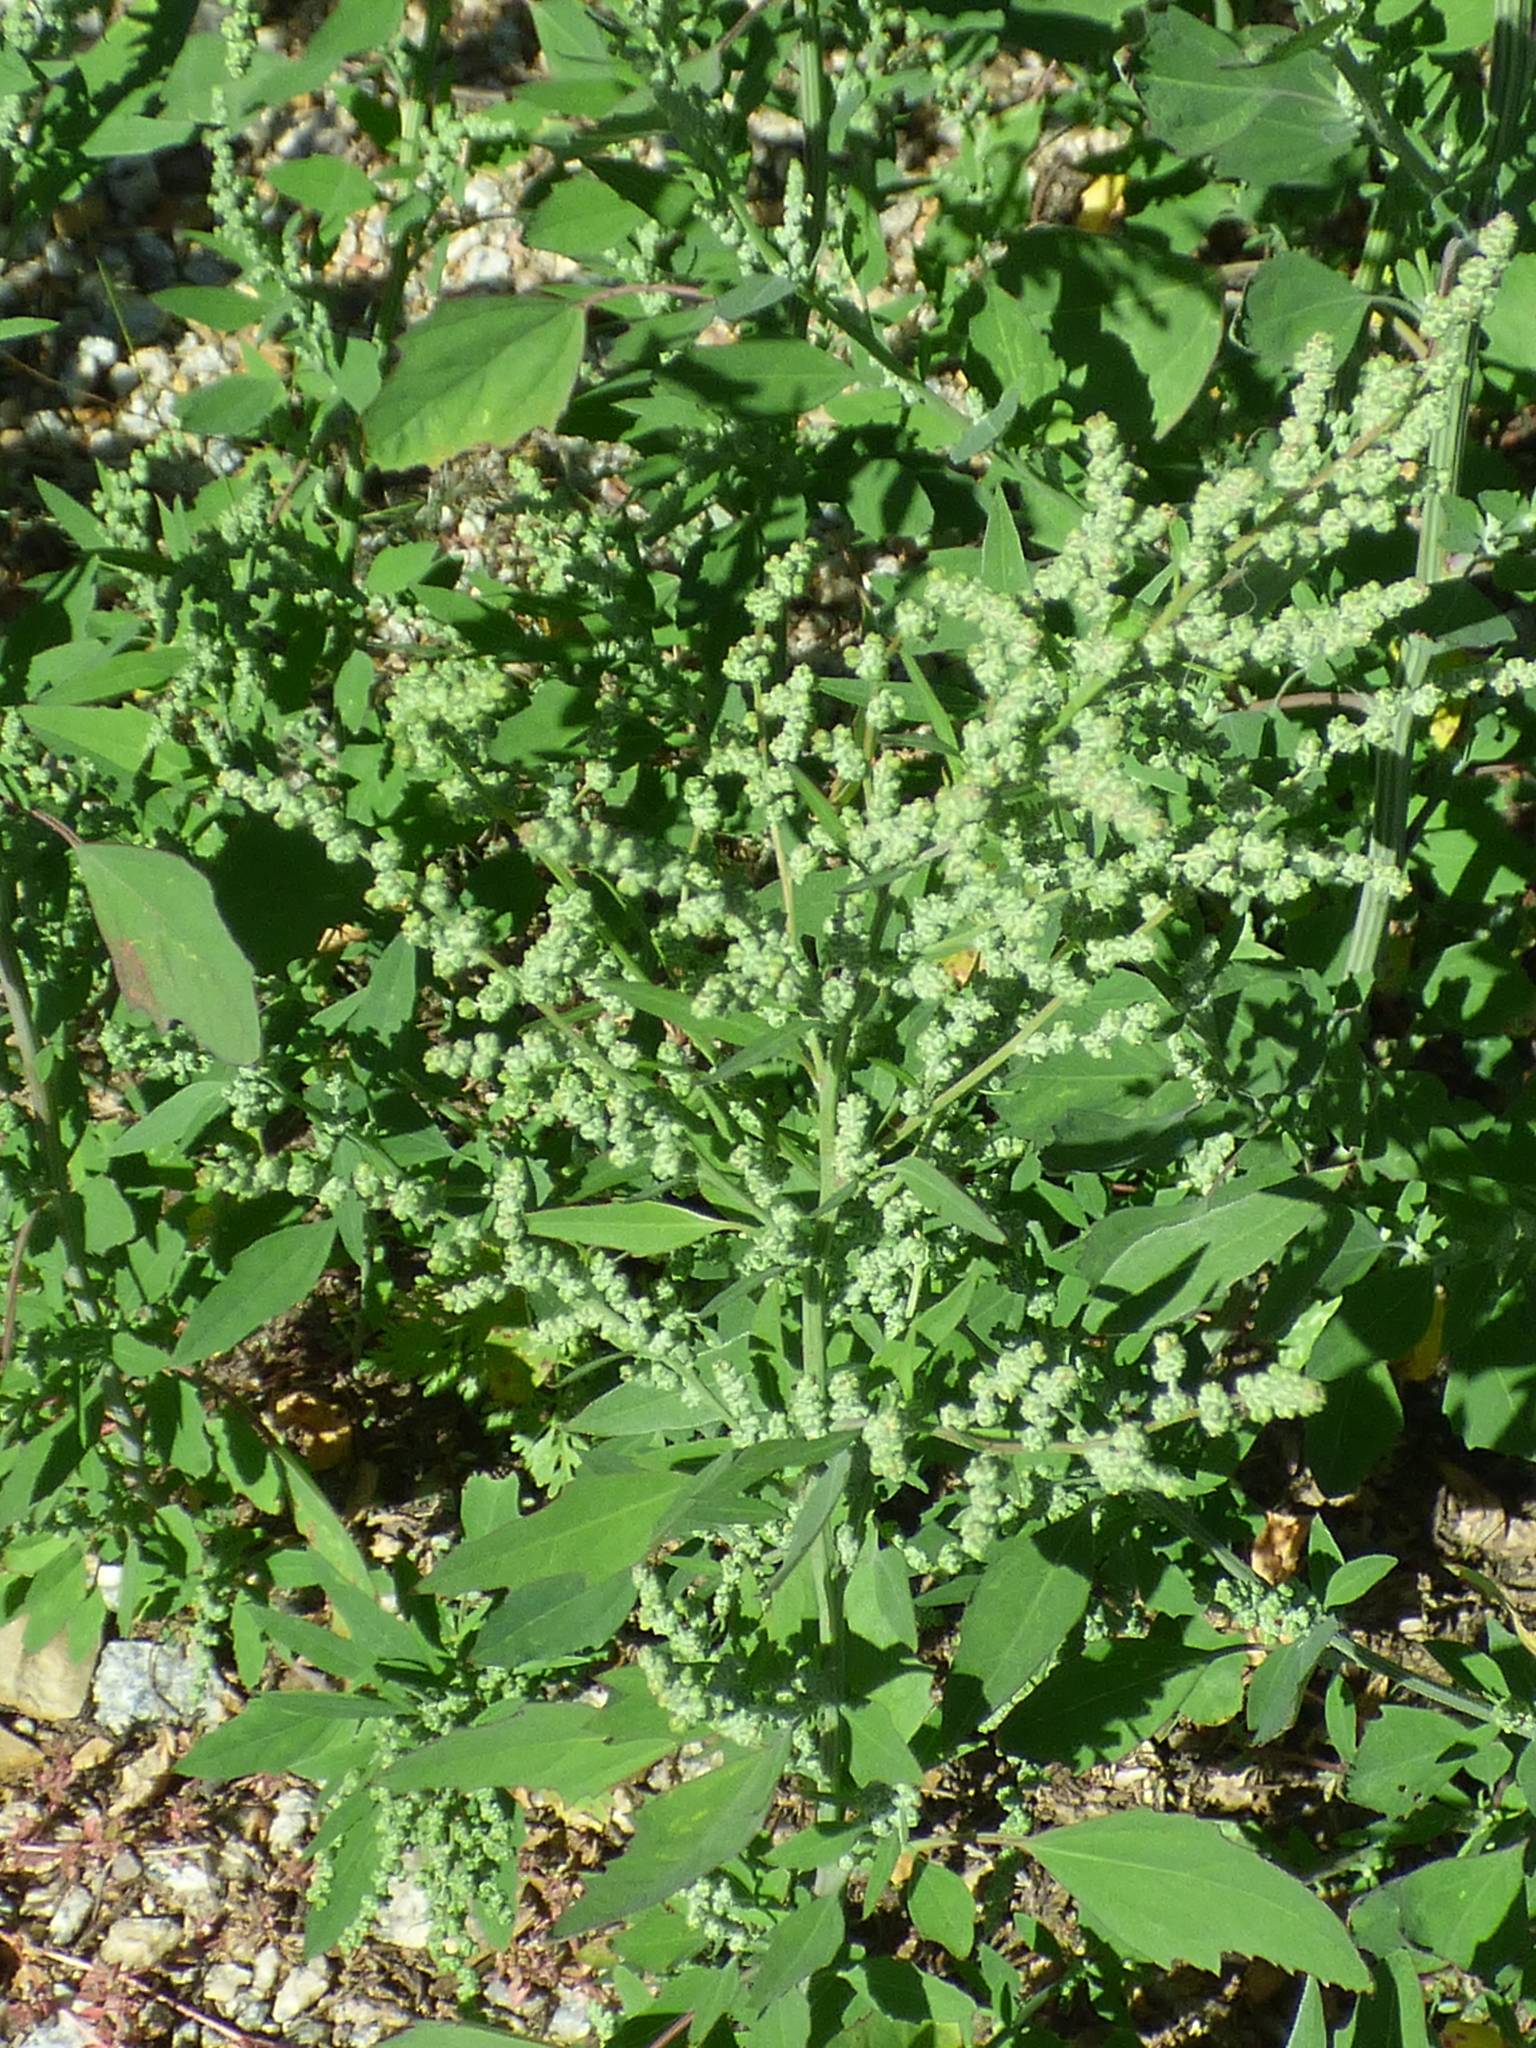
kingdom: Plantae
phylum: Tracheophyta
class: Magnoliopsida
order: Caryophyllales
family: Amaranthaceae
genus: Chenopodium
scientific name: Chenopodium album
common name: Fat-hen
